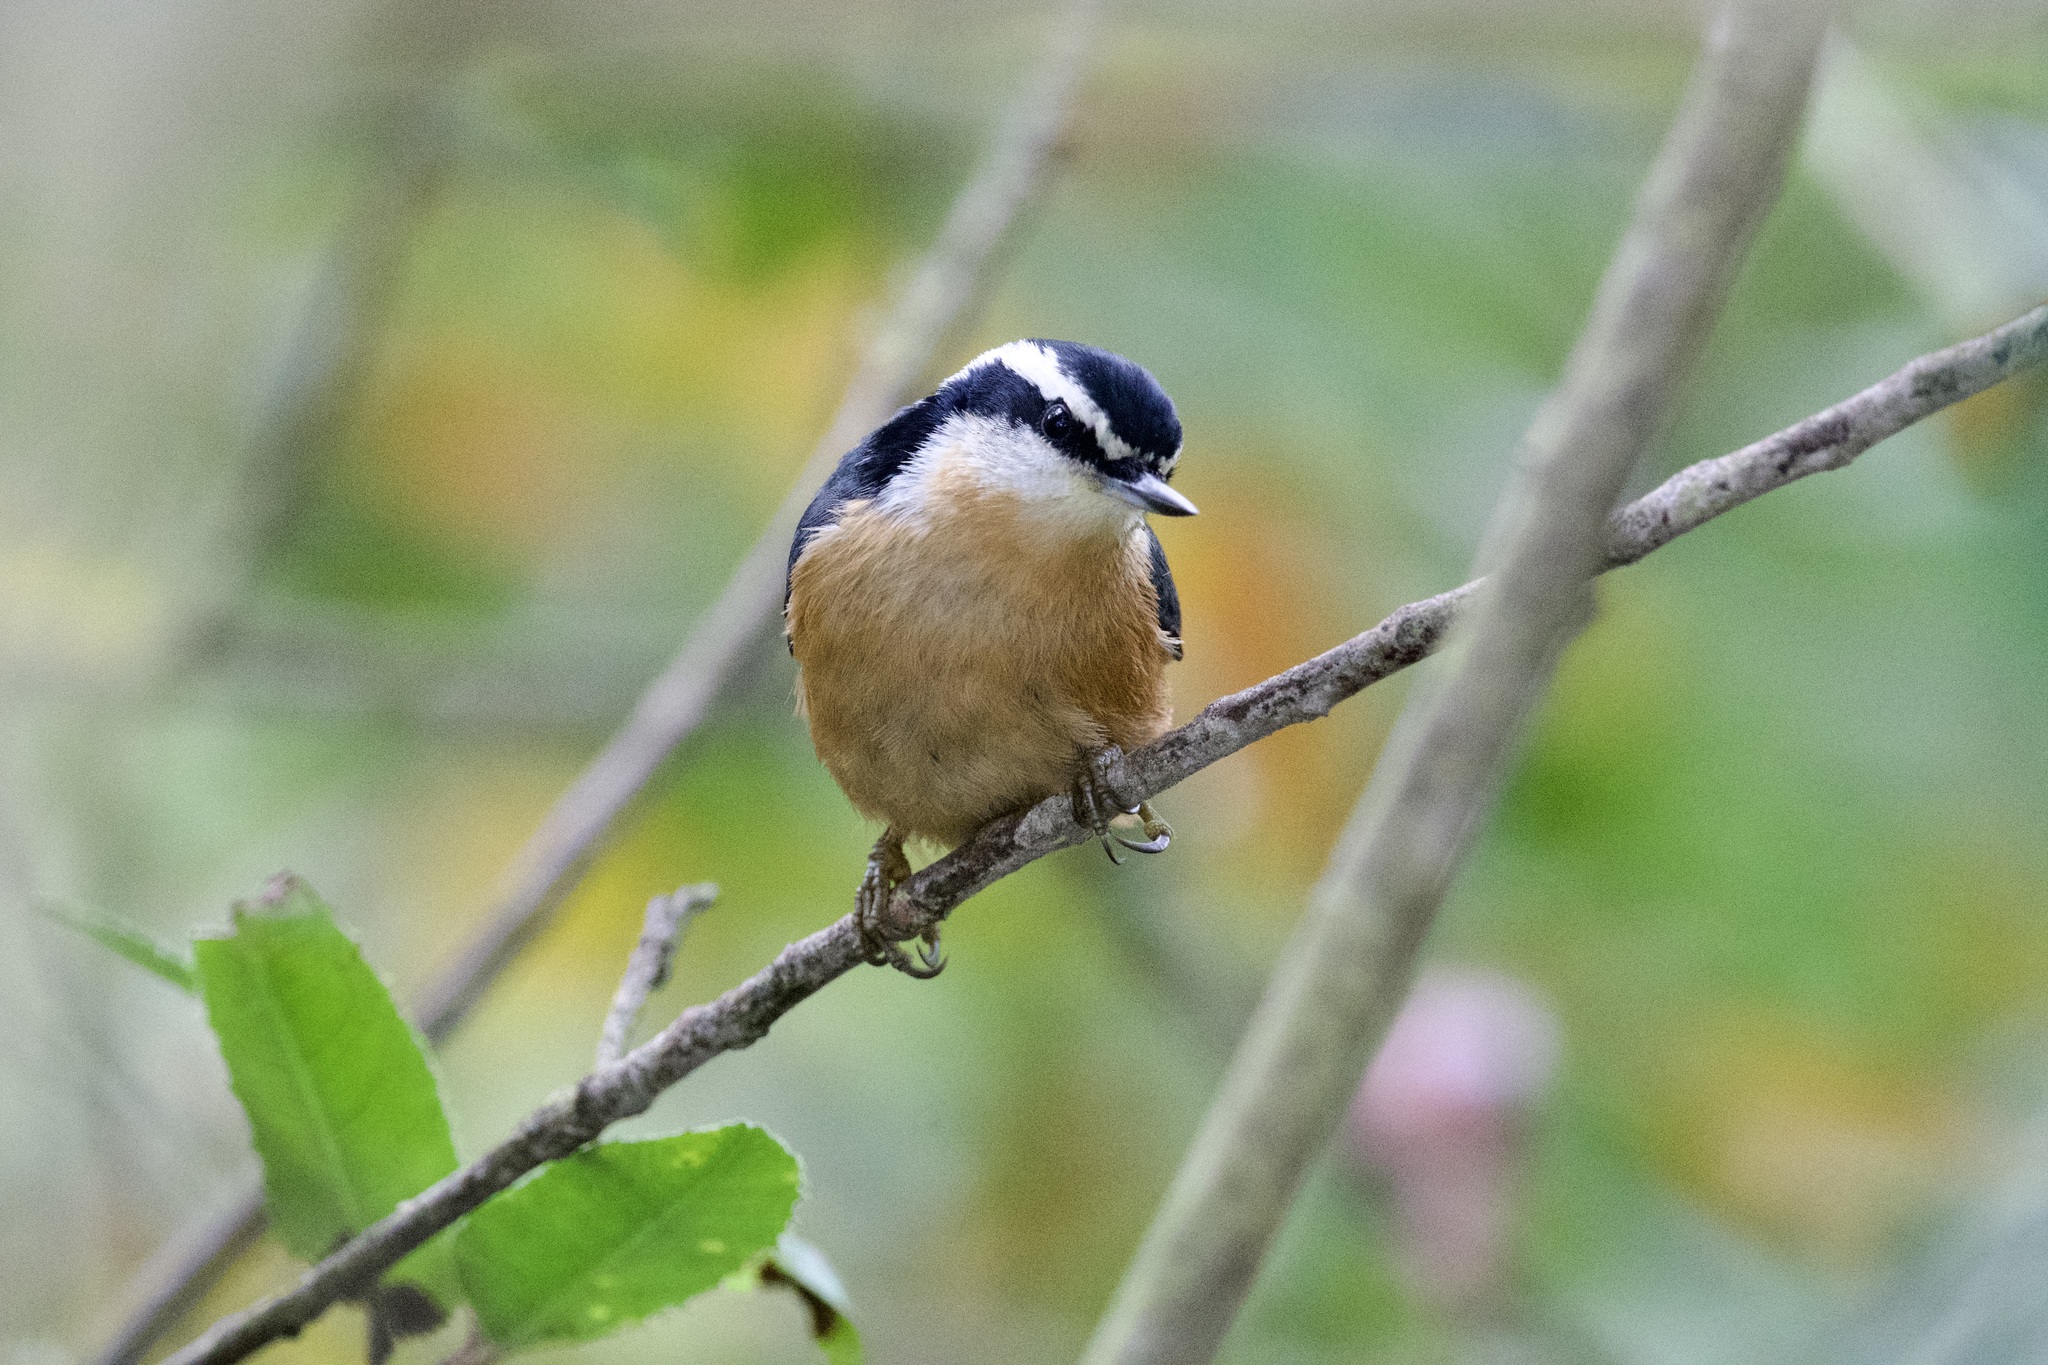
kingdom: Animalia
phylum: Chordata
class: Aves
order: Passeriformes
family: Sittidae
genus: Sitta
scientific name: Sitta canadensis
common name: Red-breasted nuthatch
